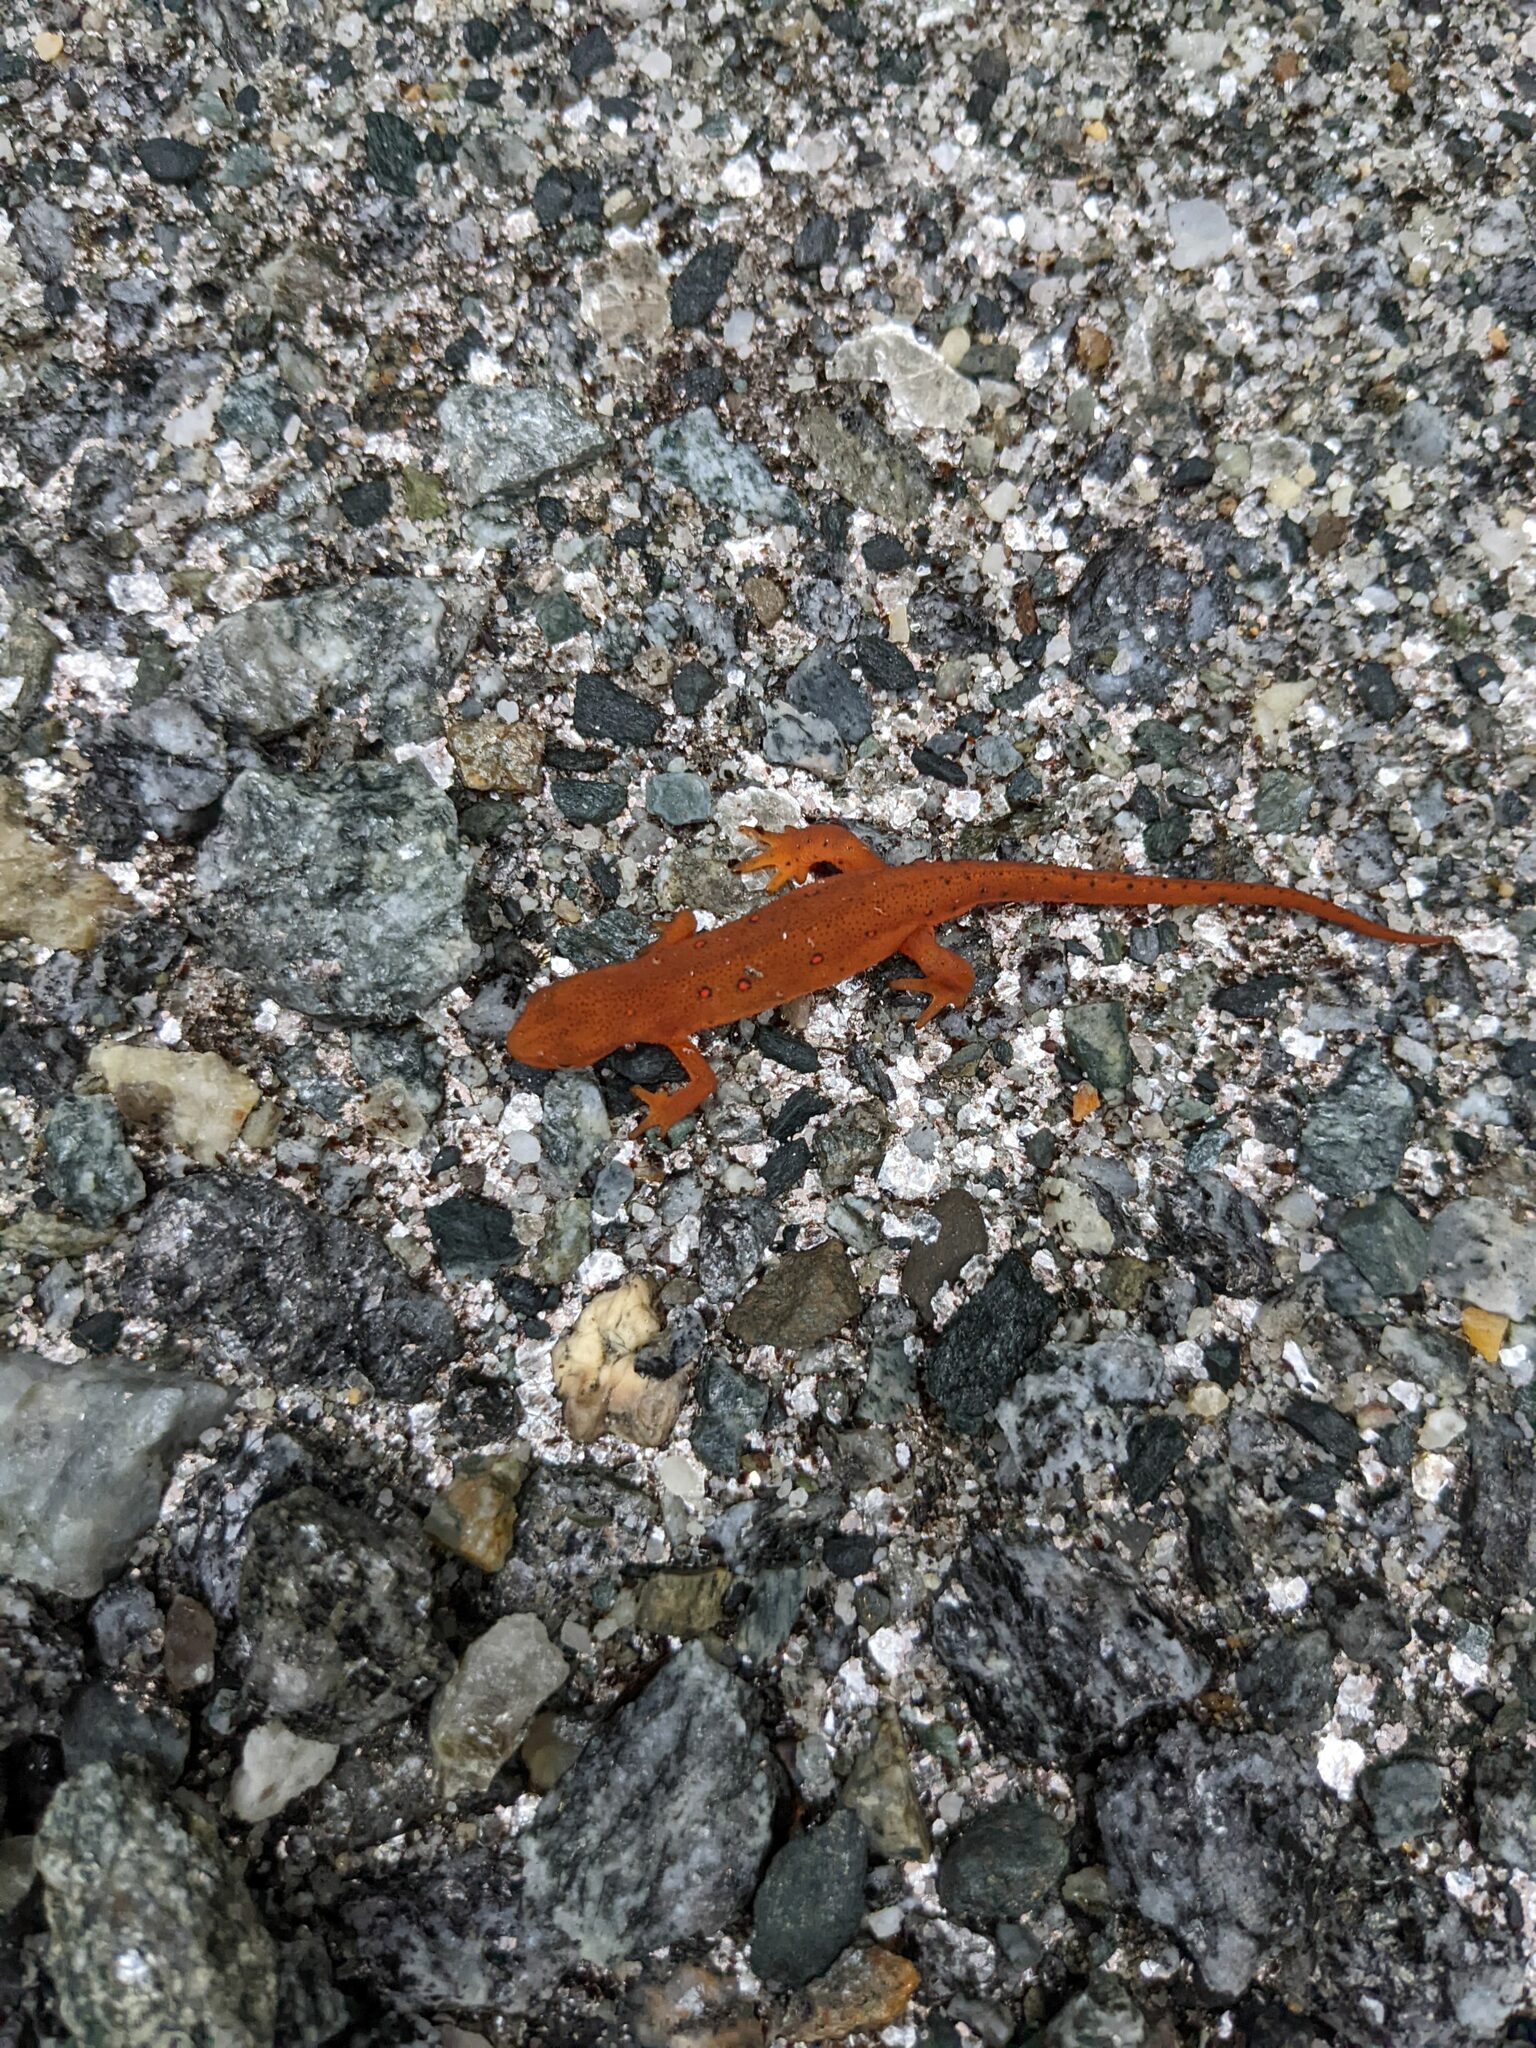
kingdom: Animalia
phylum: Chordata
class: Amphibia
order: Caudata
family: Salamandridae
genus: Notophthalmus
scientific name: Notophthalmus viridescens
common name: Eastern newt
